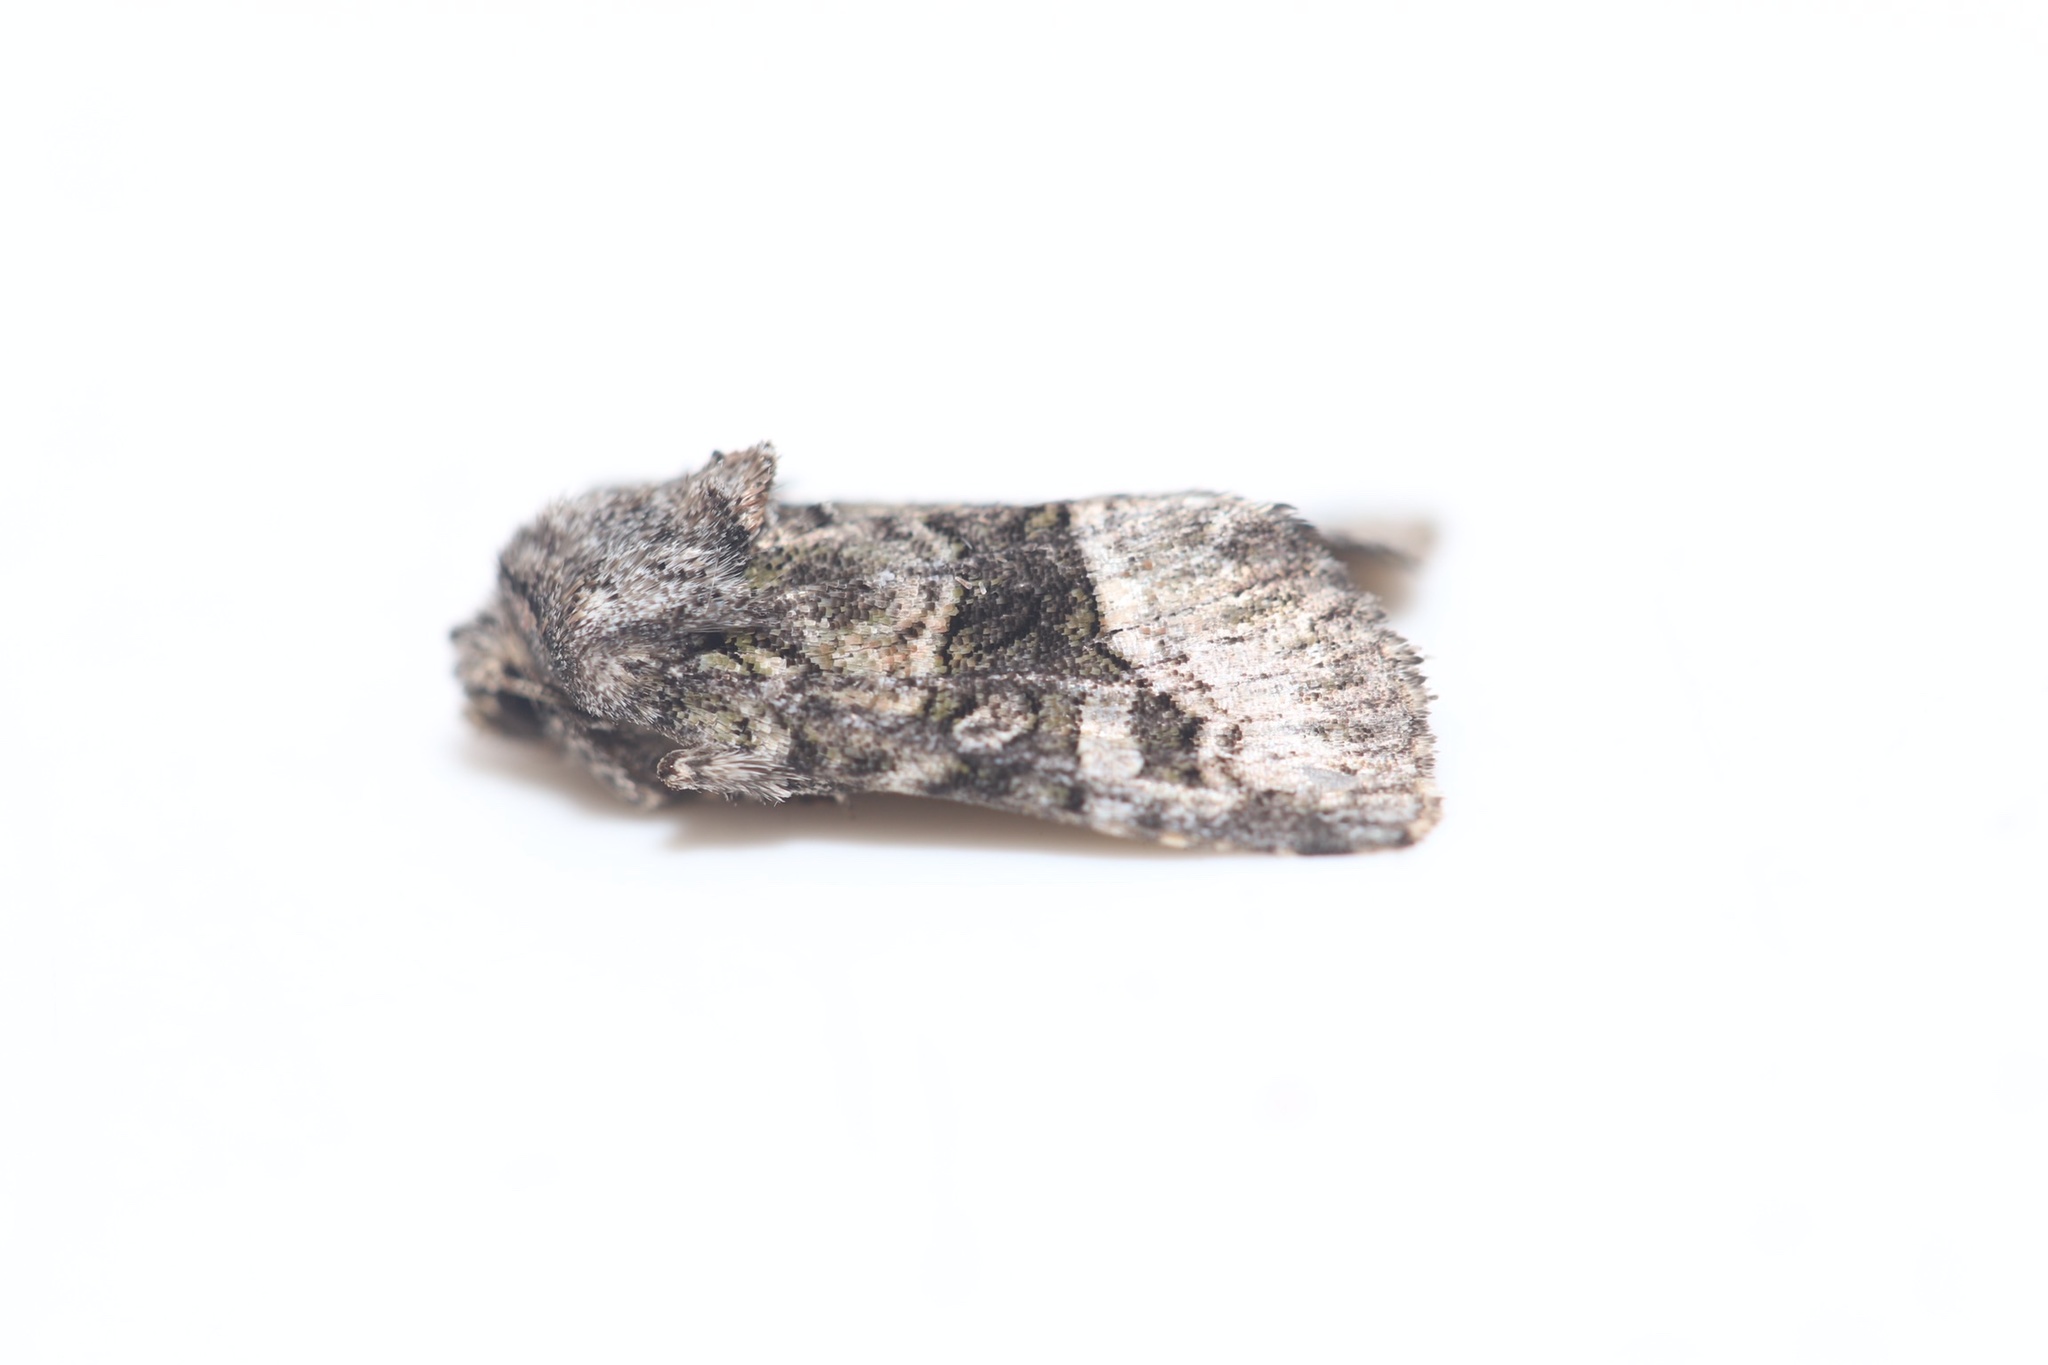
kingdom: Animalia
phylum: Arthropoda
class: Insecta
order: Lepidoptera
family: Noctuidae
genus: Lacinipolia
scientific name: Lacinipolia olivacea
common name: Olive arches moth
